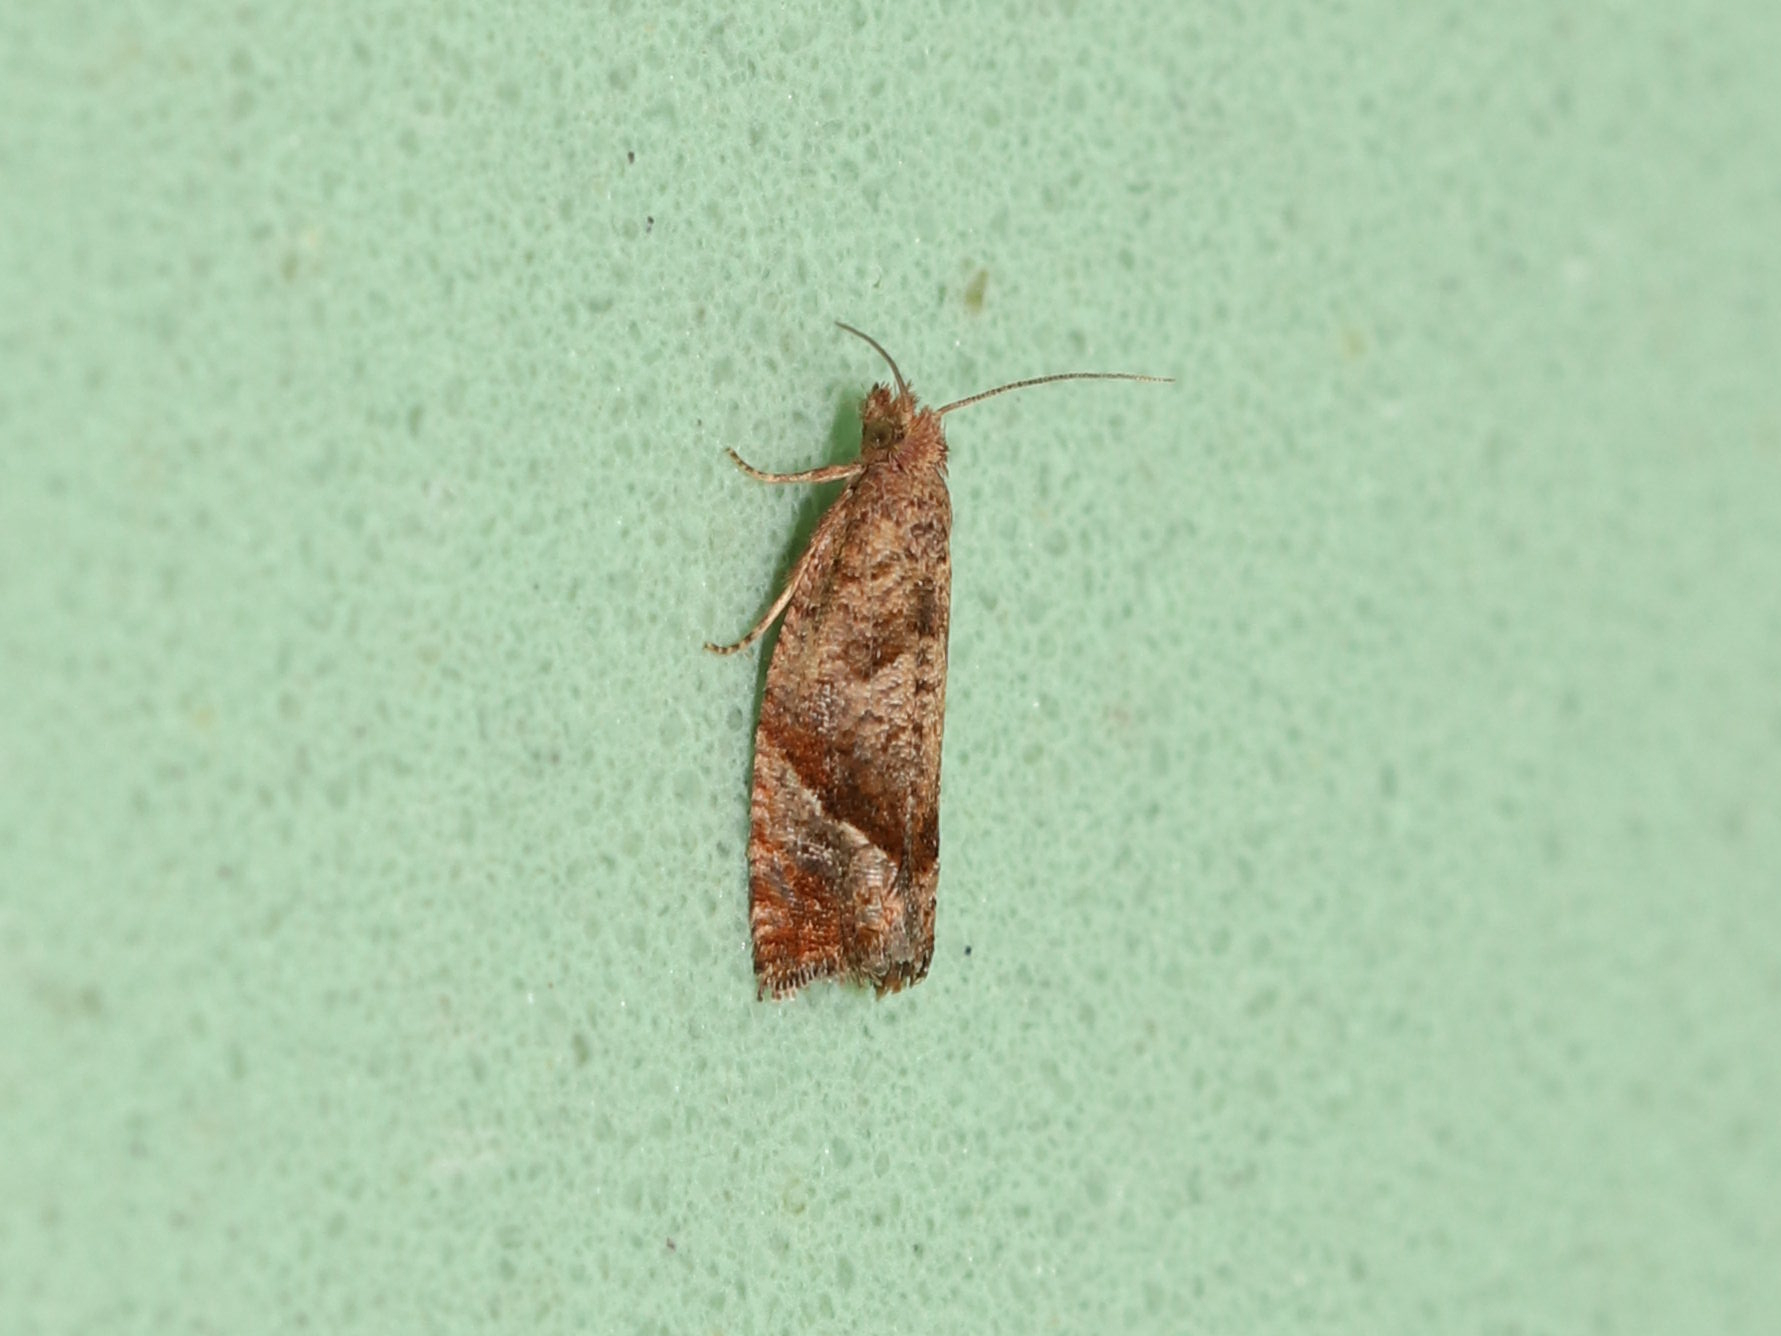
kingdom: Animalia
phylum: Arthropoda
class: Insecta
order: Lepidoptera
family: Tortricidae
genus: Pelochrista
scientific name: Pelochrista derelicta
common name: Derelict pelochrista moth
